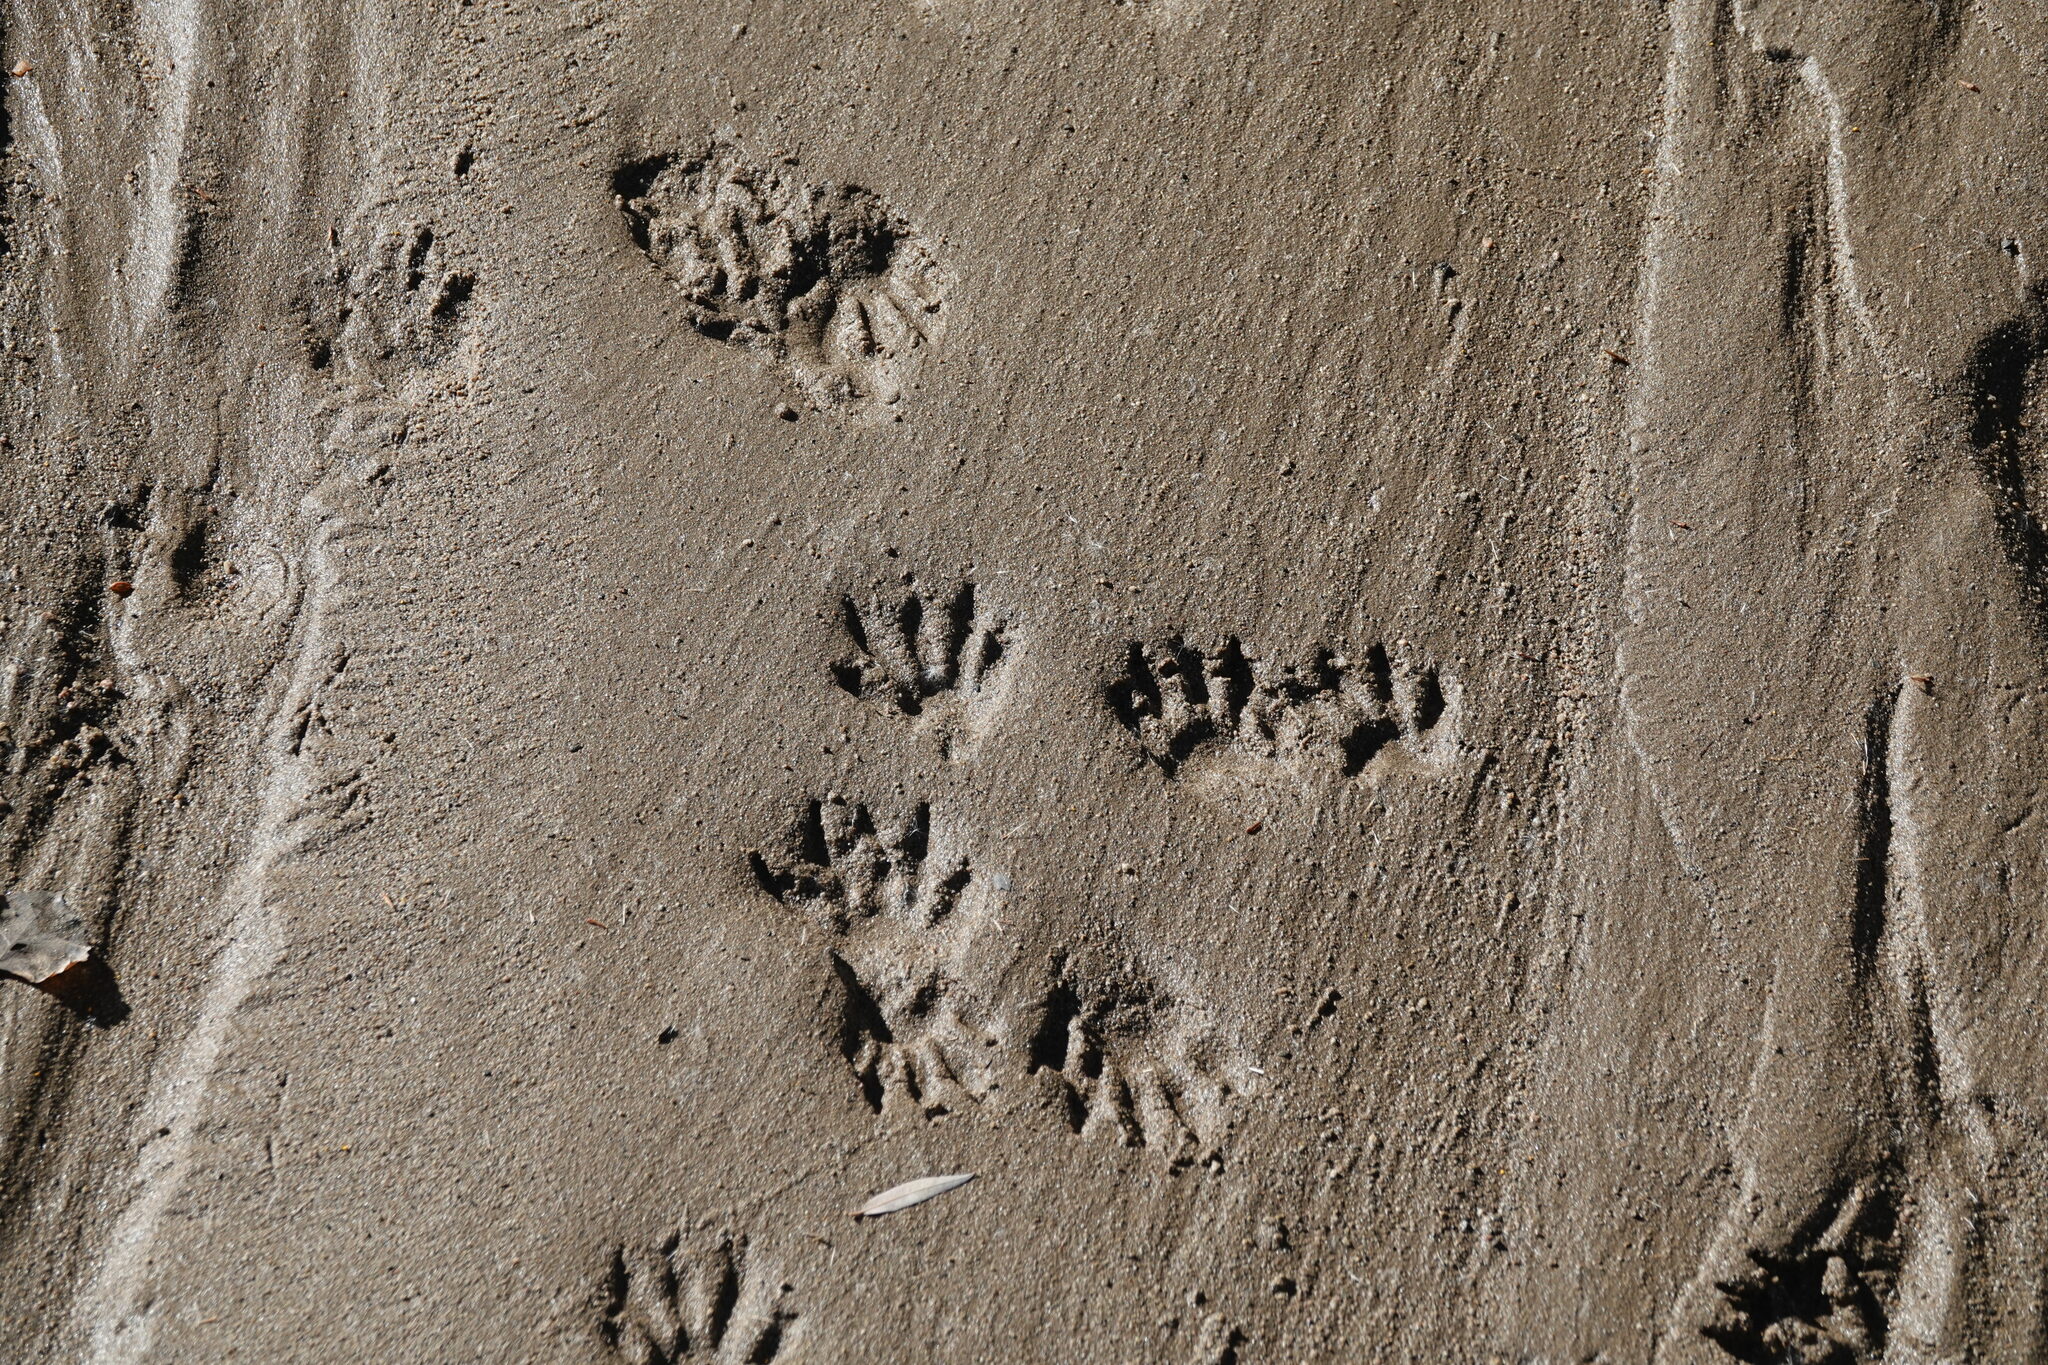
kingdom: Animalia
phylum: Chordata
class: Mammalia
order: Carnivora
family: Procyonidae
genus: Procyon
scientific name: Procyon lotor
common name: Raccoon
